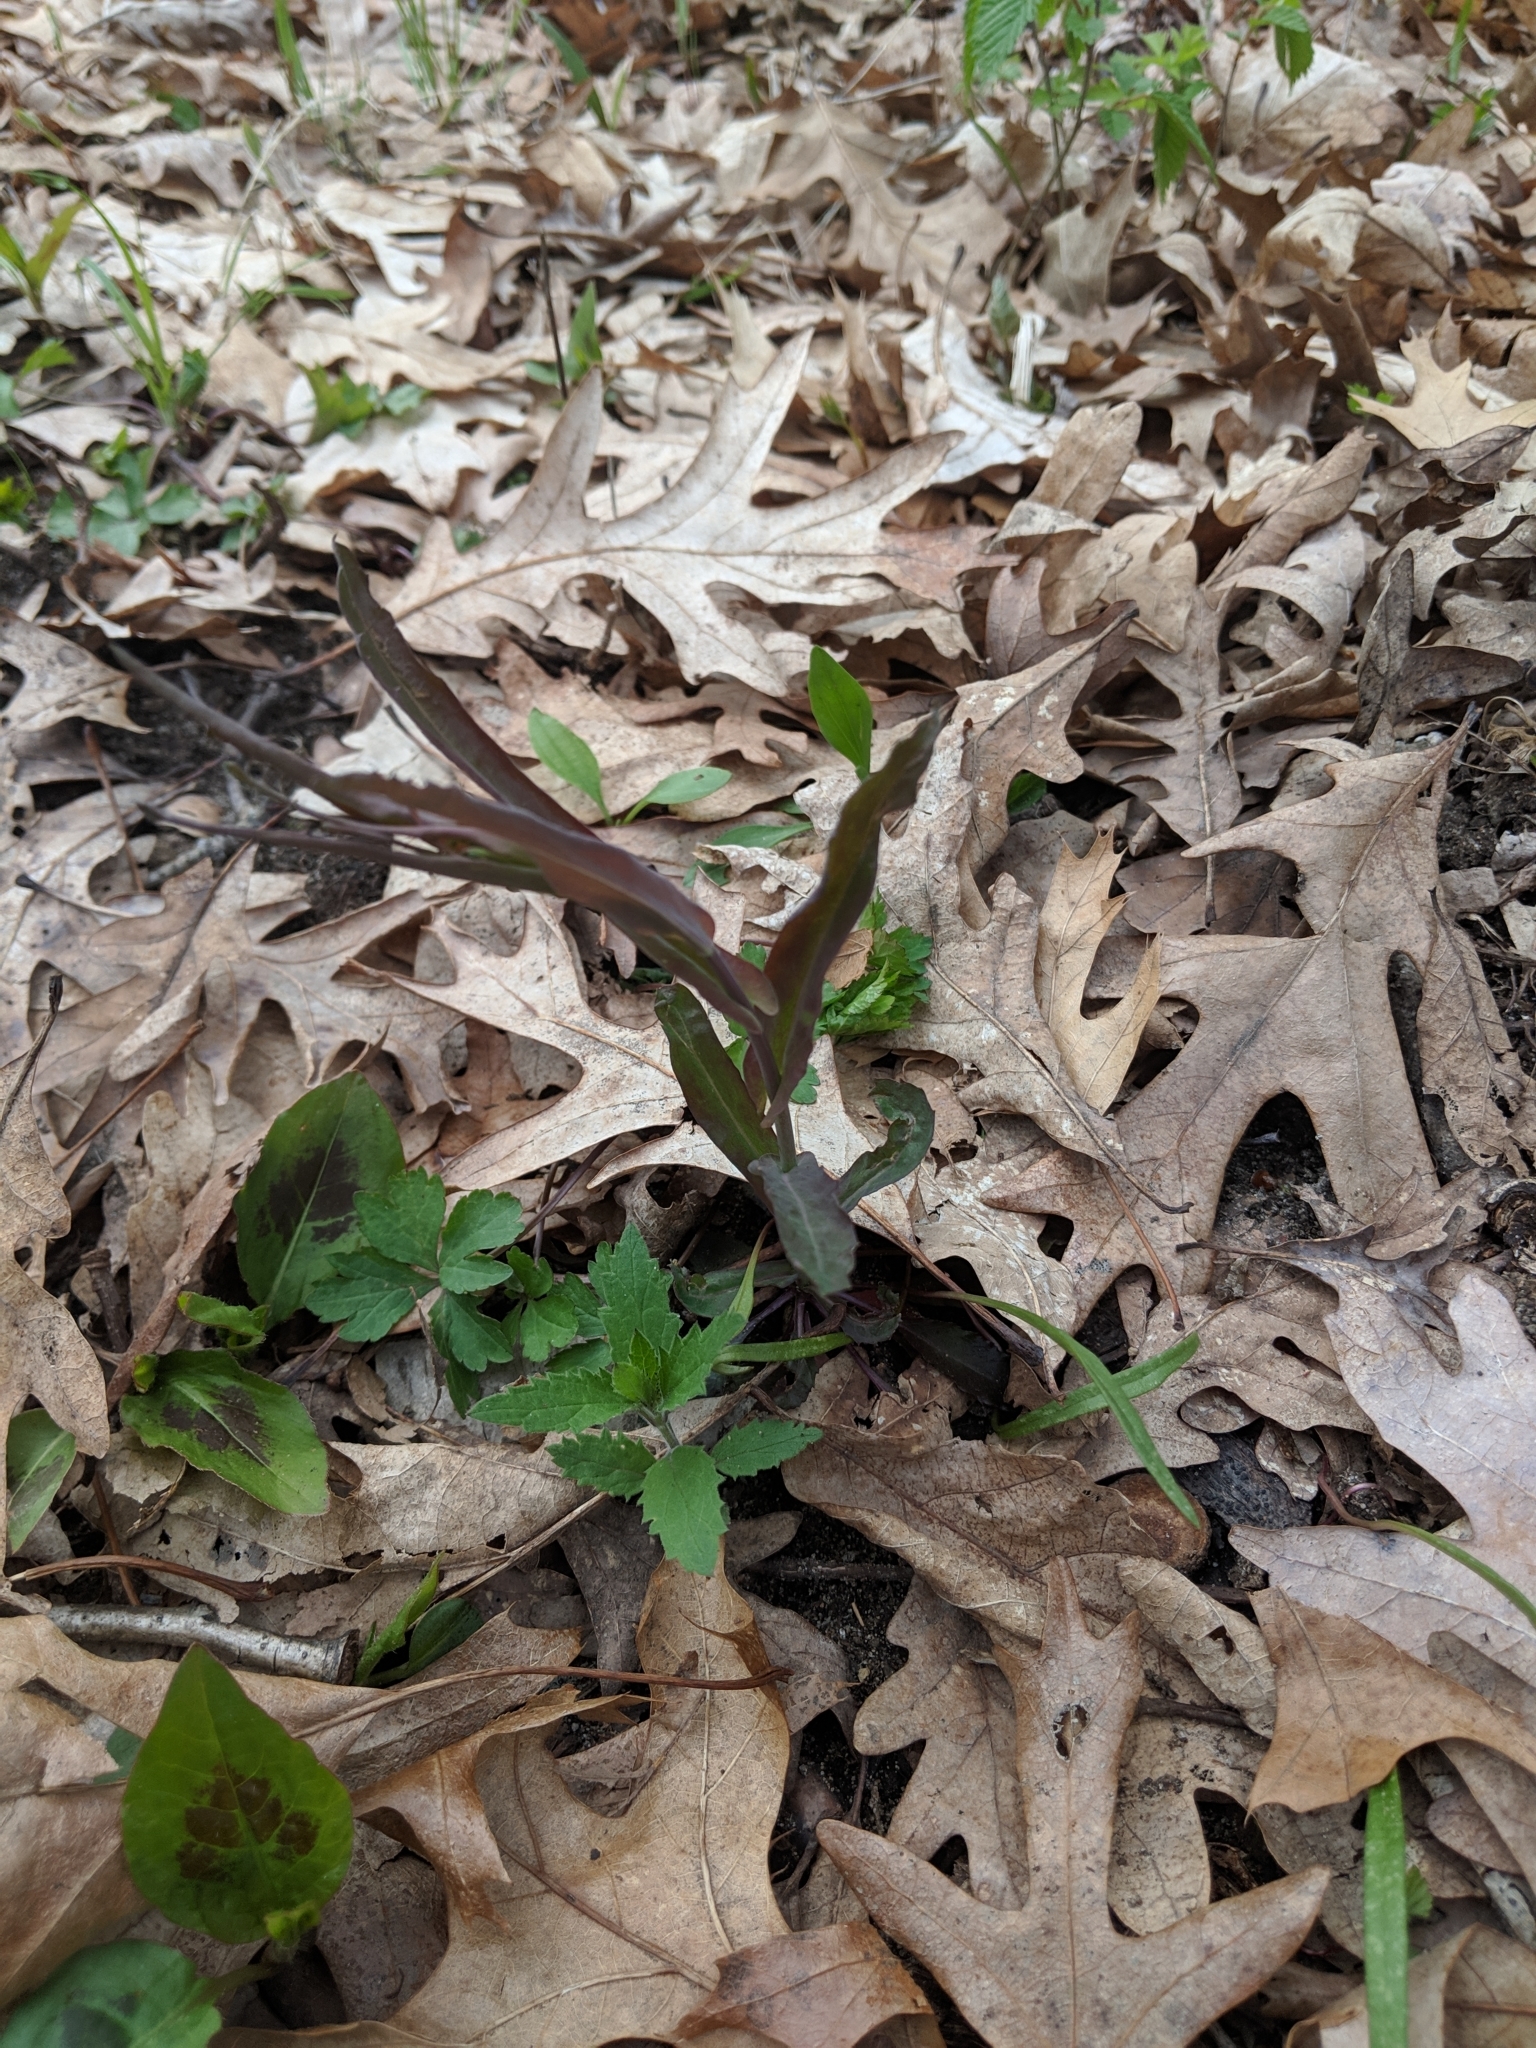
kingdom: Plantae
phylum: Tracheophyta
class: Magnoliopsida
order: Brassicales
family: Brassicaceae
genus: Borodinia
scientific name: Borodinia laevigata
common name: Smooth rockcress
